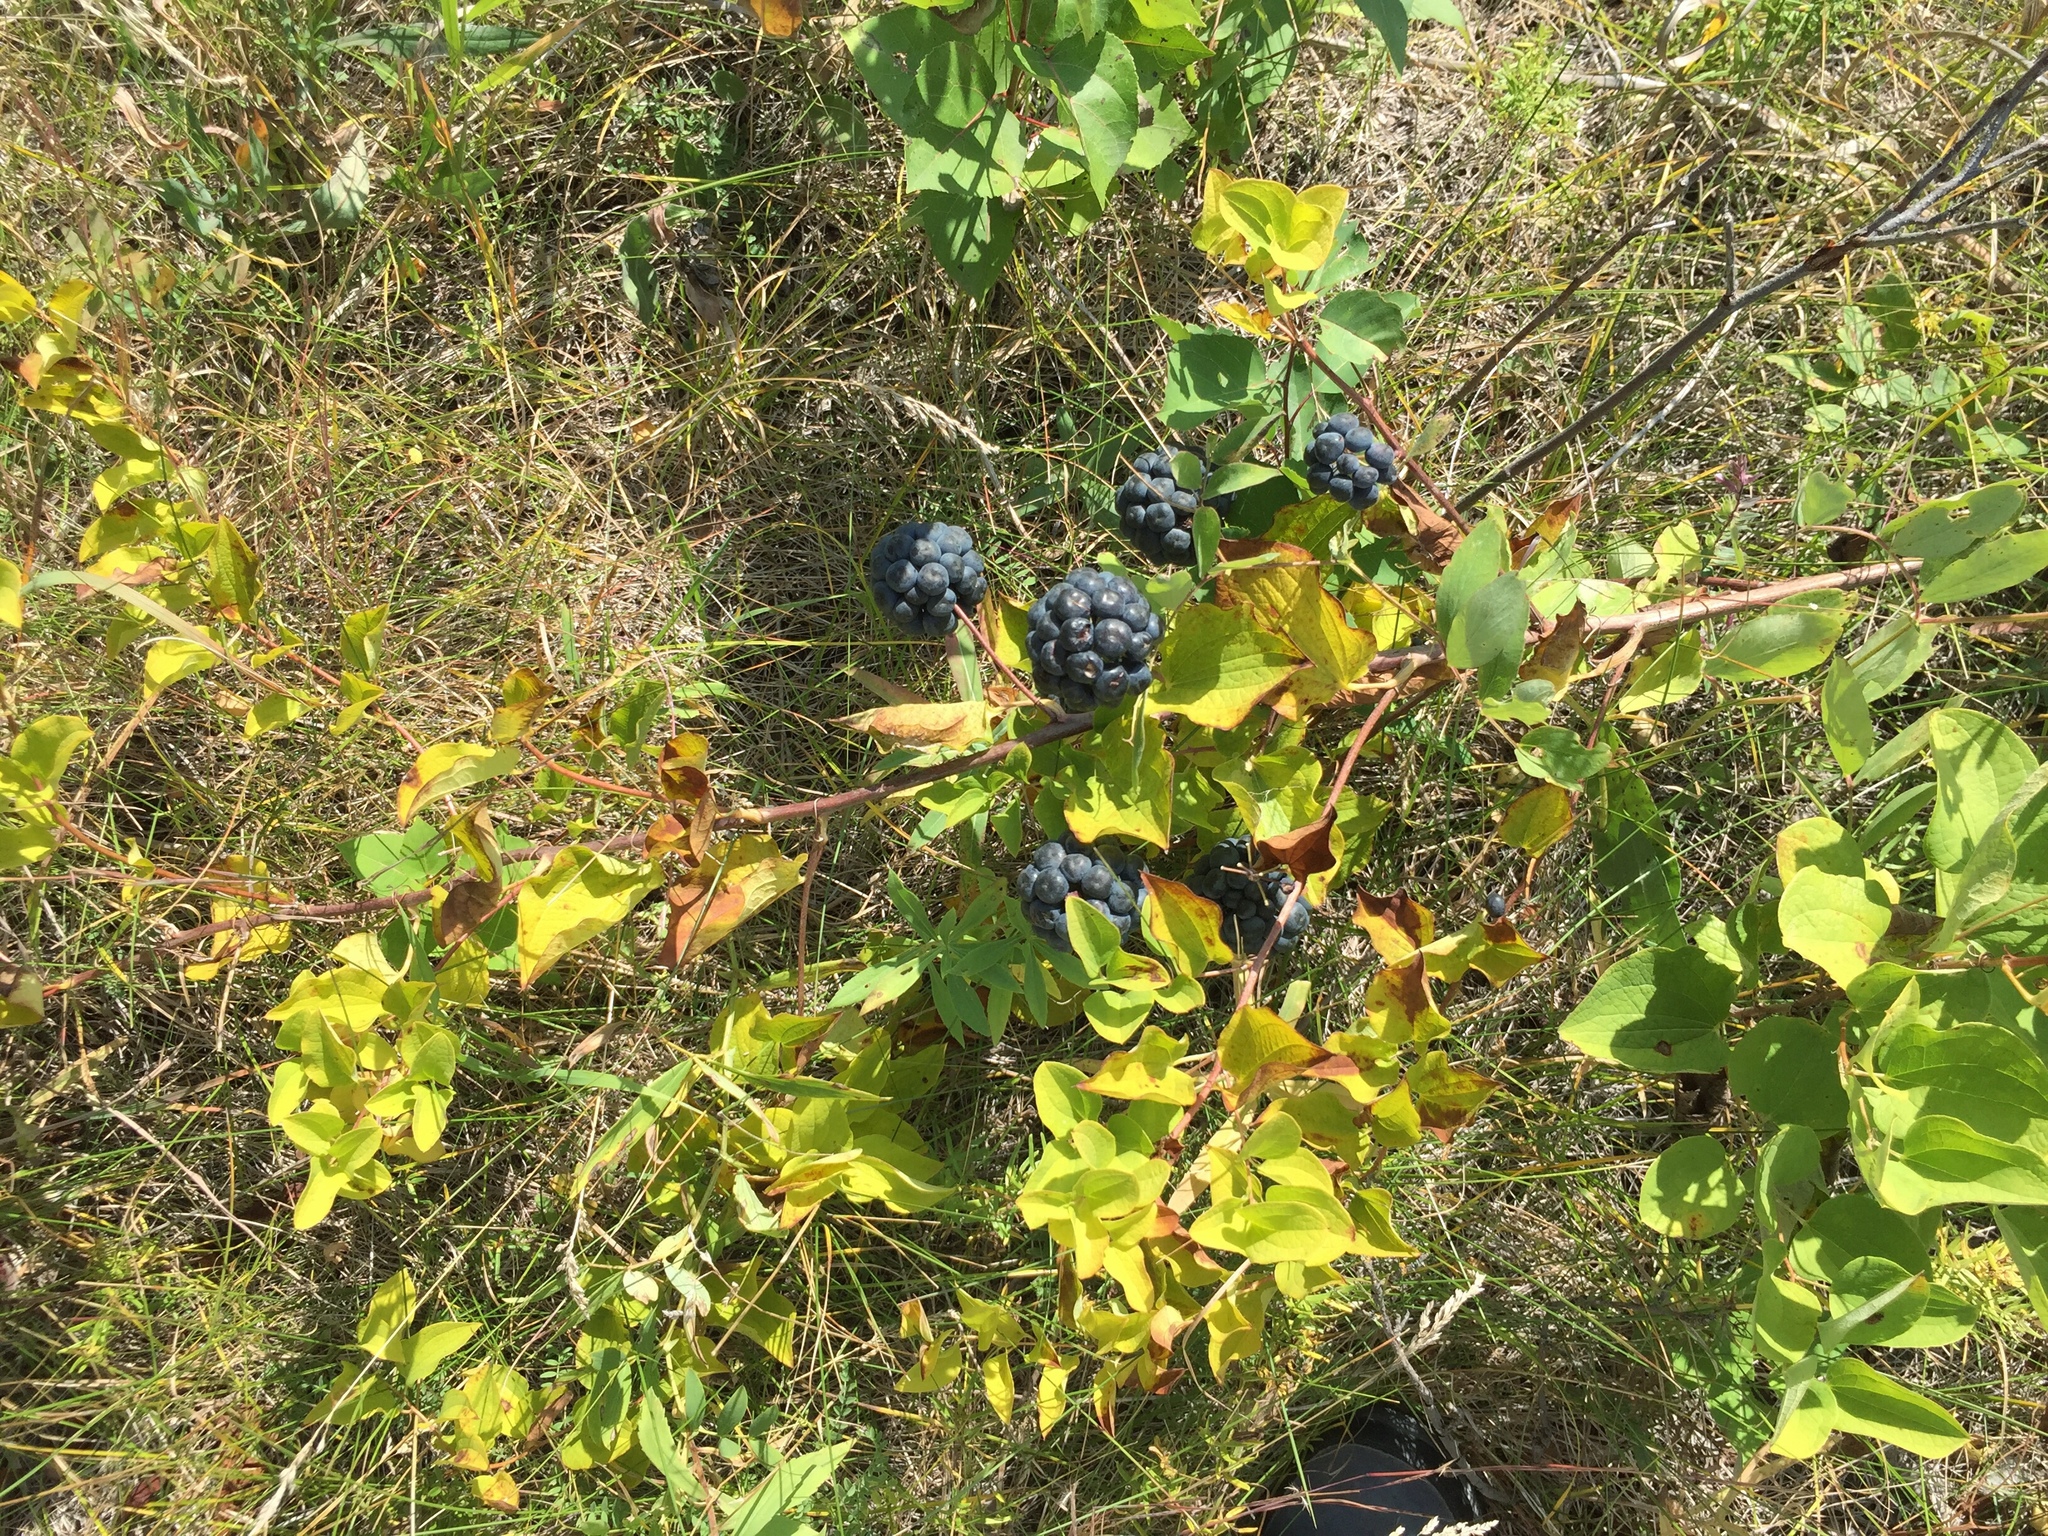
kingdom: Plantae
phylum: Tracheophyta
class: Liliopsida
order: Liliales
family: Smilacaceae
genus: Smilax
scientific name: Smilax lasioneura
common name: Blue ridge carrionflower
